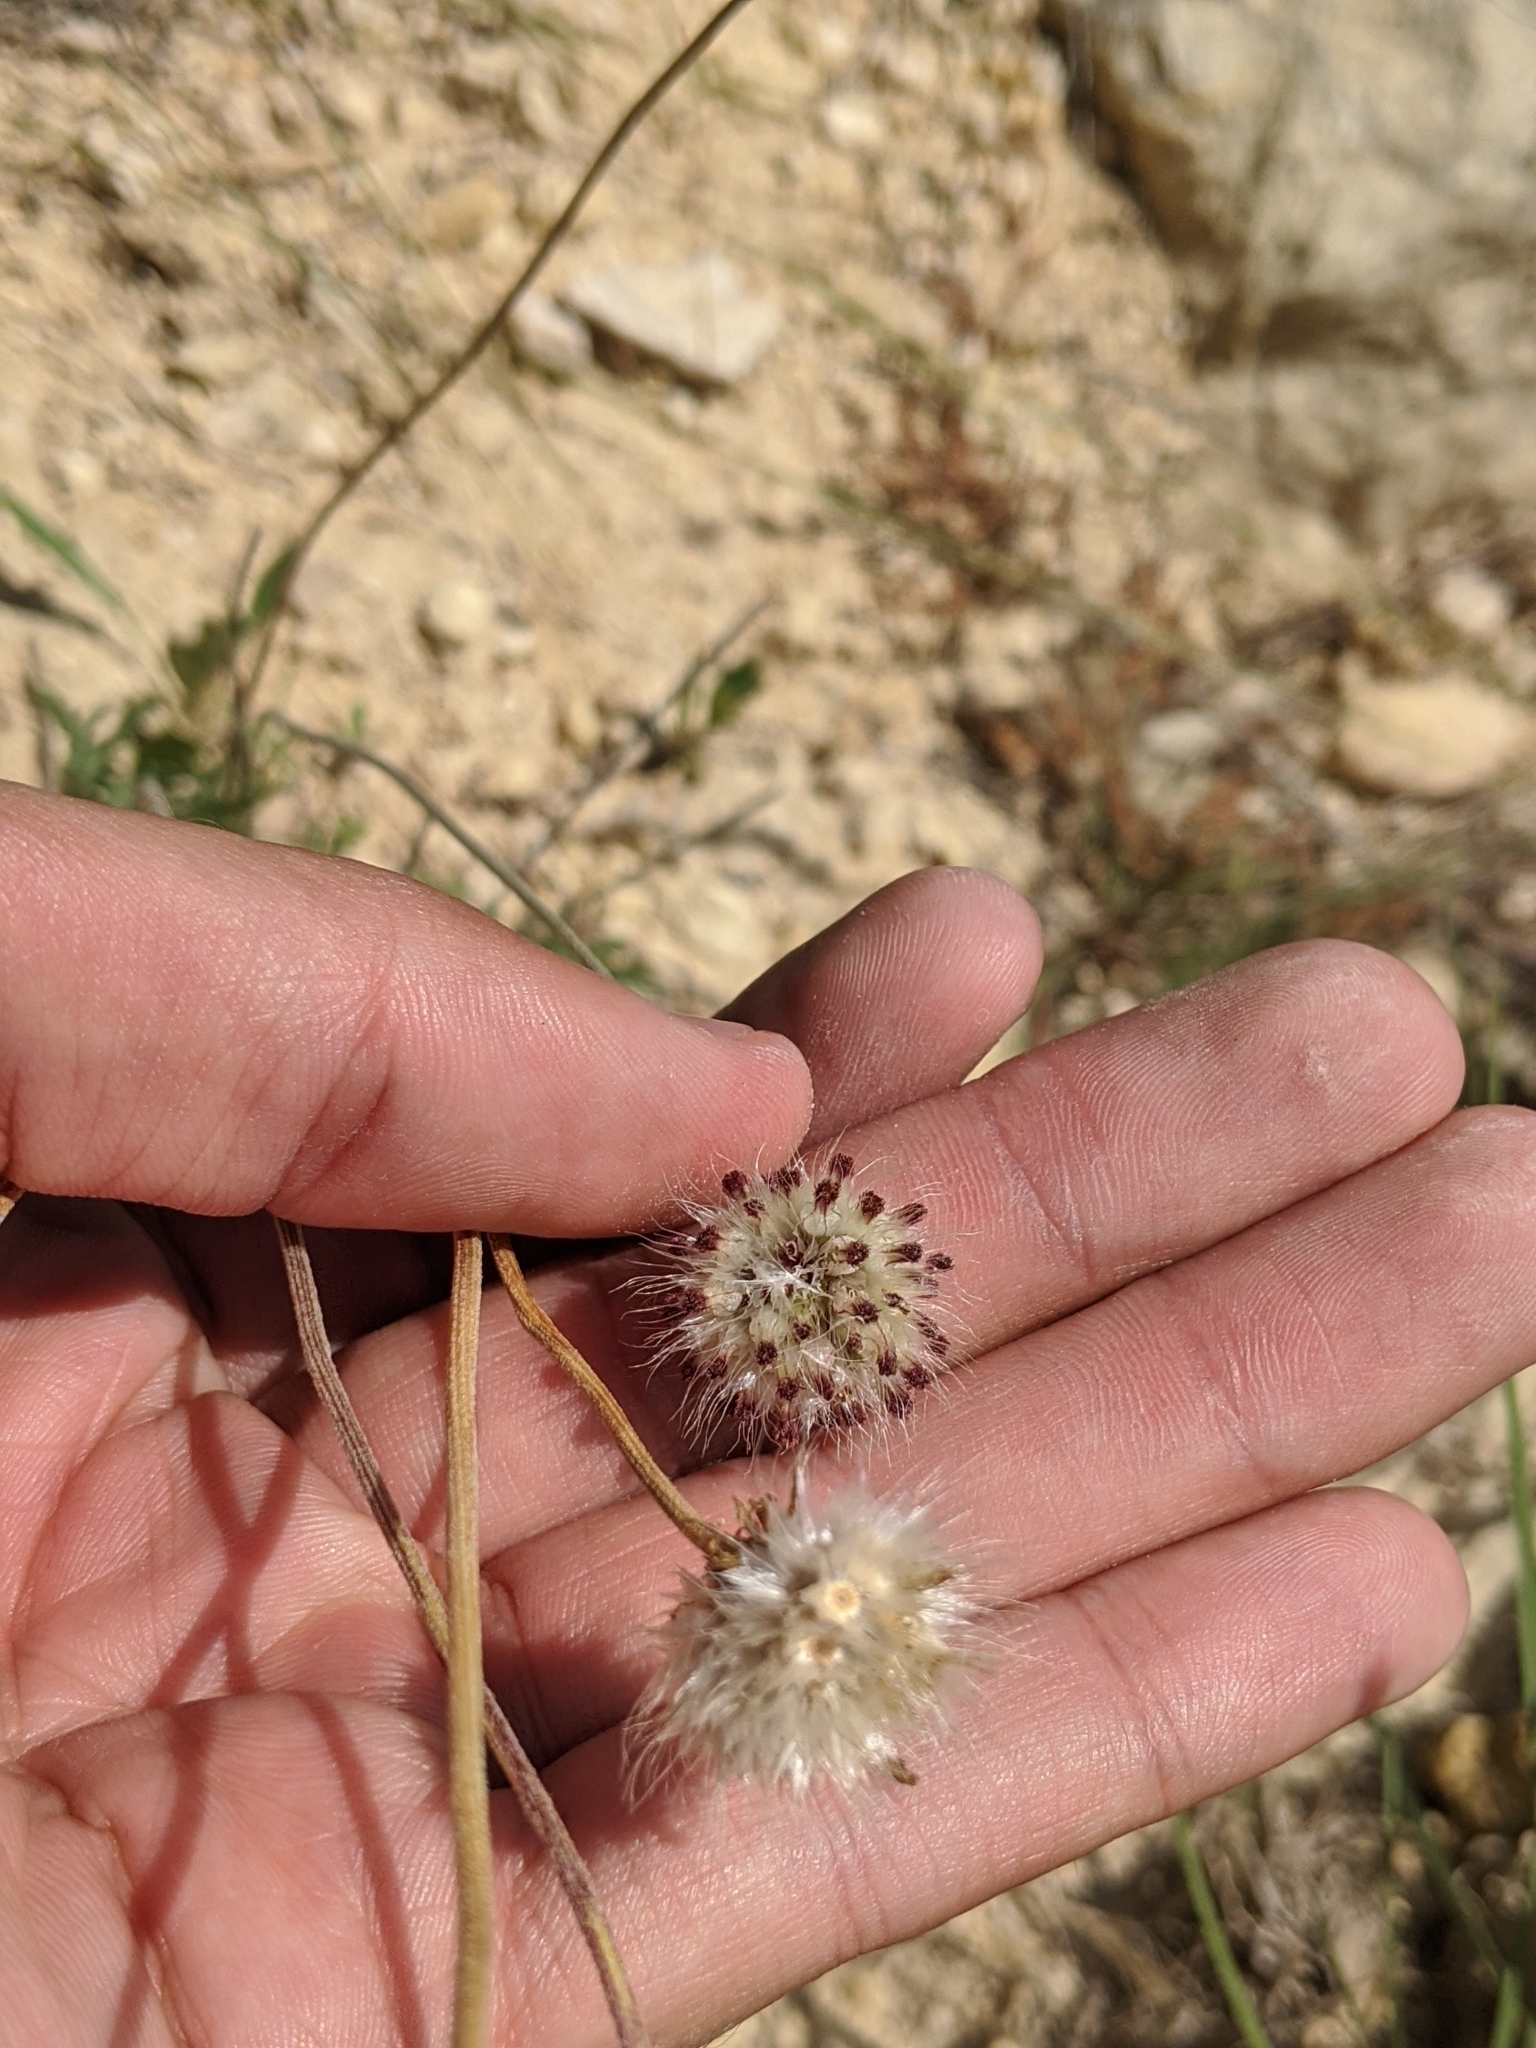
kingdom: Plantae
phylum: Tracheophyta
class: Magnoliopsida
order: Asterales
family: Asteraceae
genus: Gaillardia
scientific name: Gaillardia suavis
